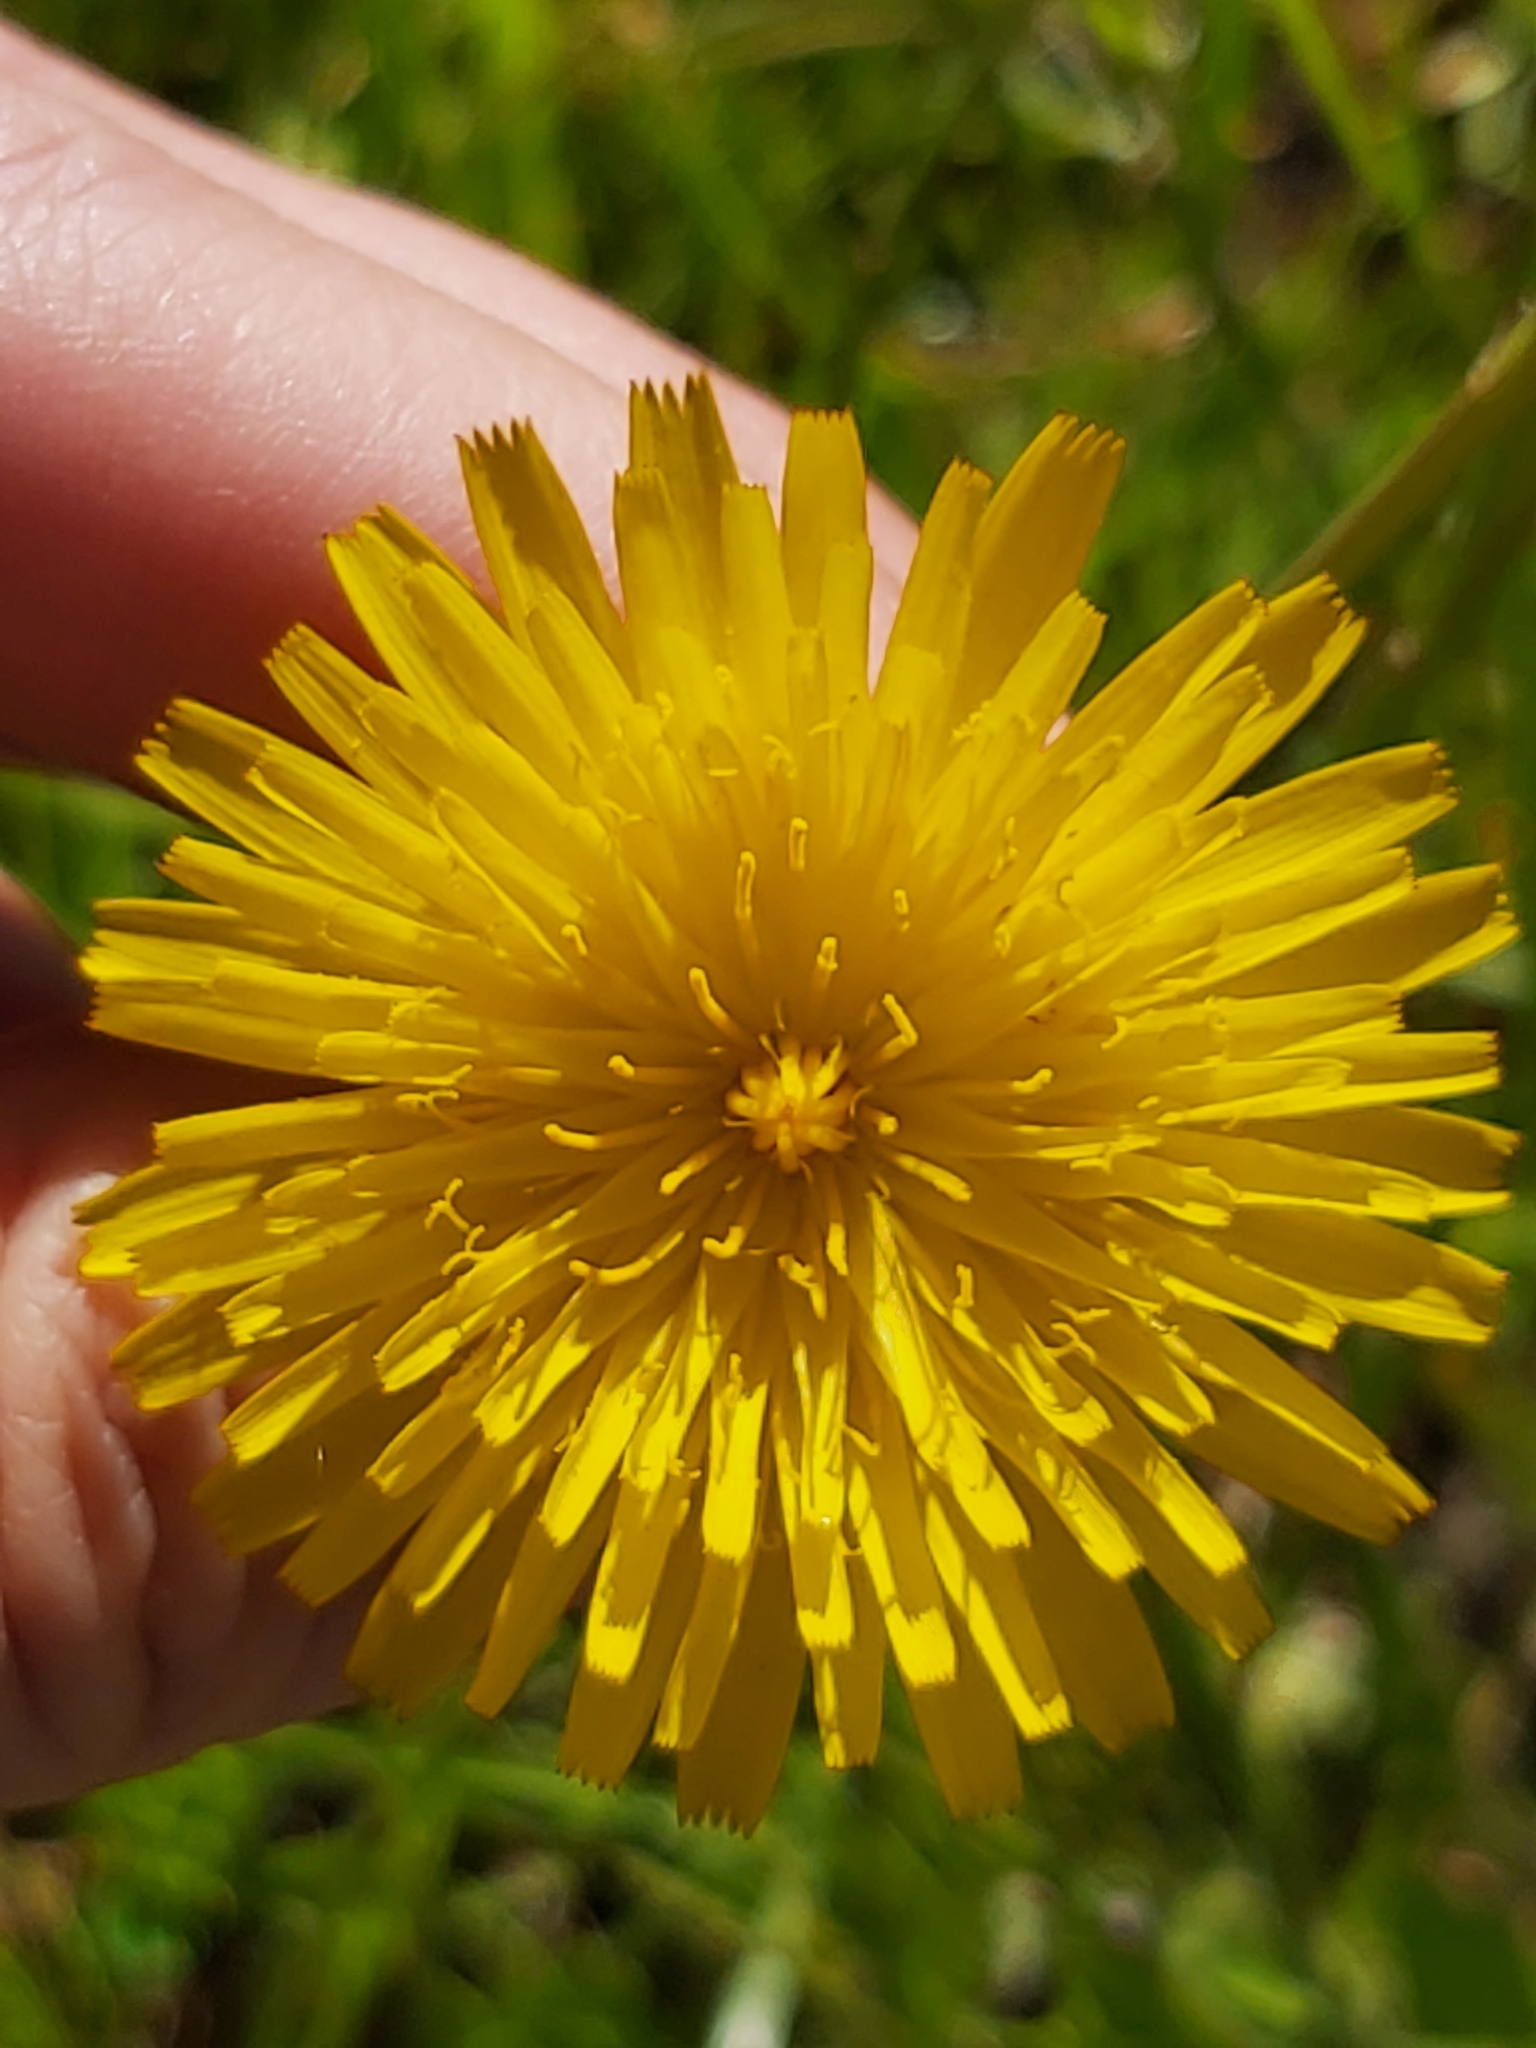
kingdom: Plantae
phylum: Tracheophyta
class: Magnoliopsida
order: Asterales
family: Asteraceae
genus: Hypochaeris
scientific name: Hypochaeris radicata
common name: Flatweed
